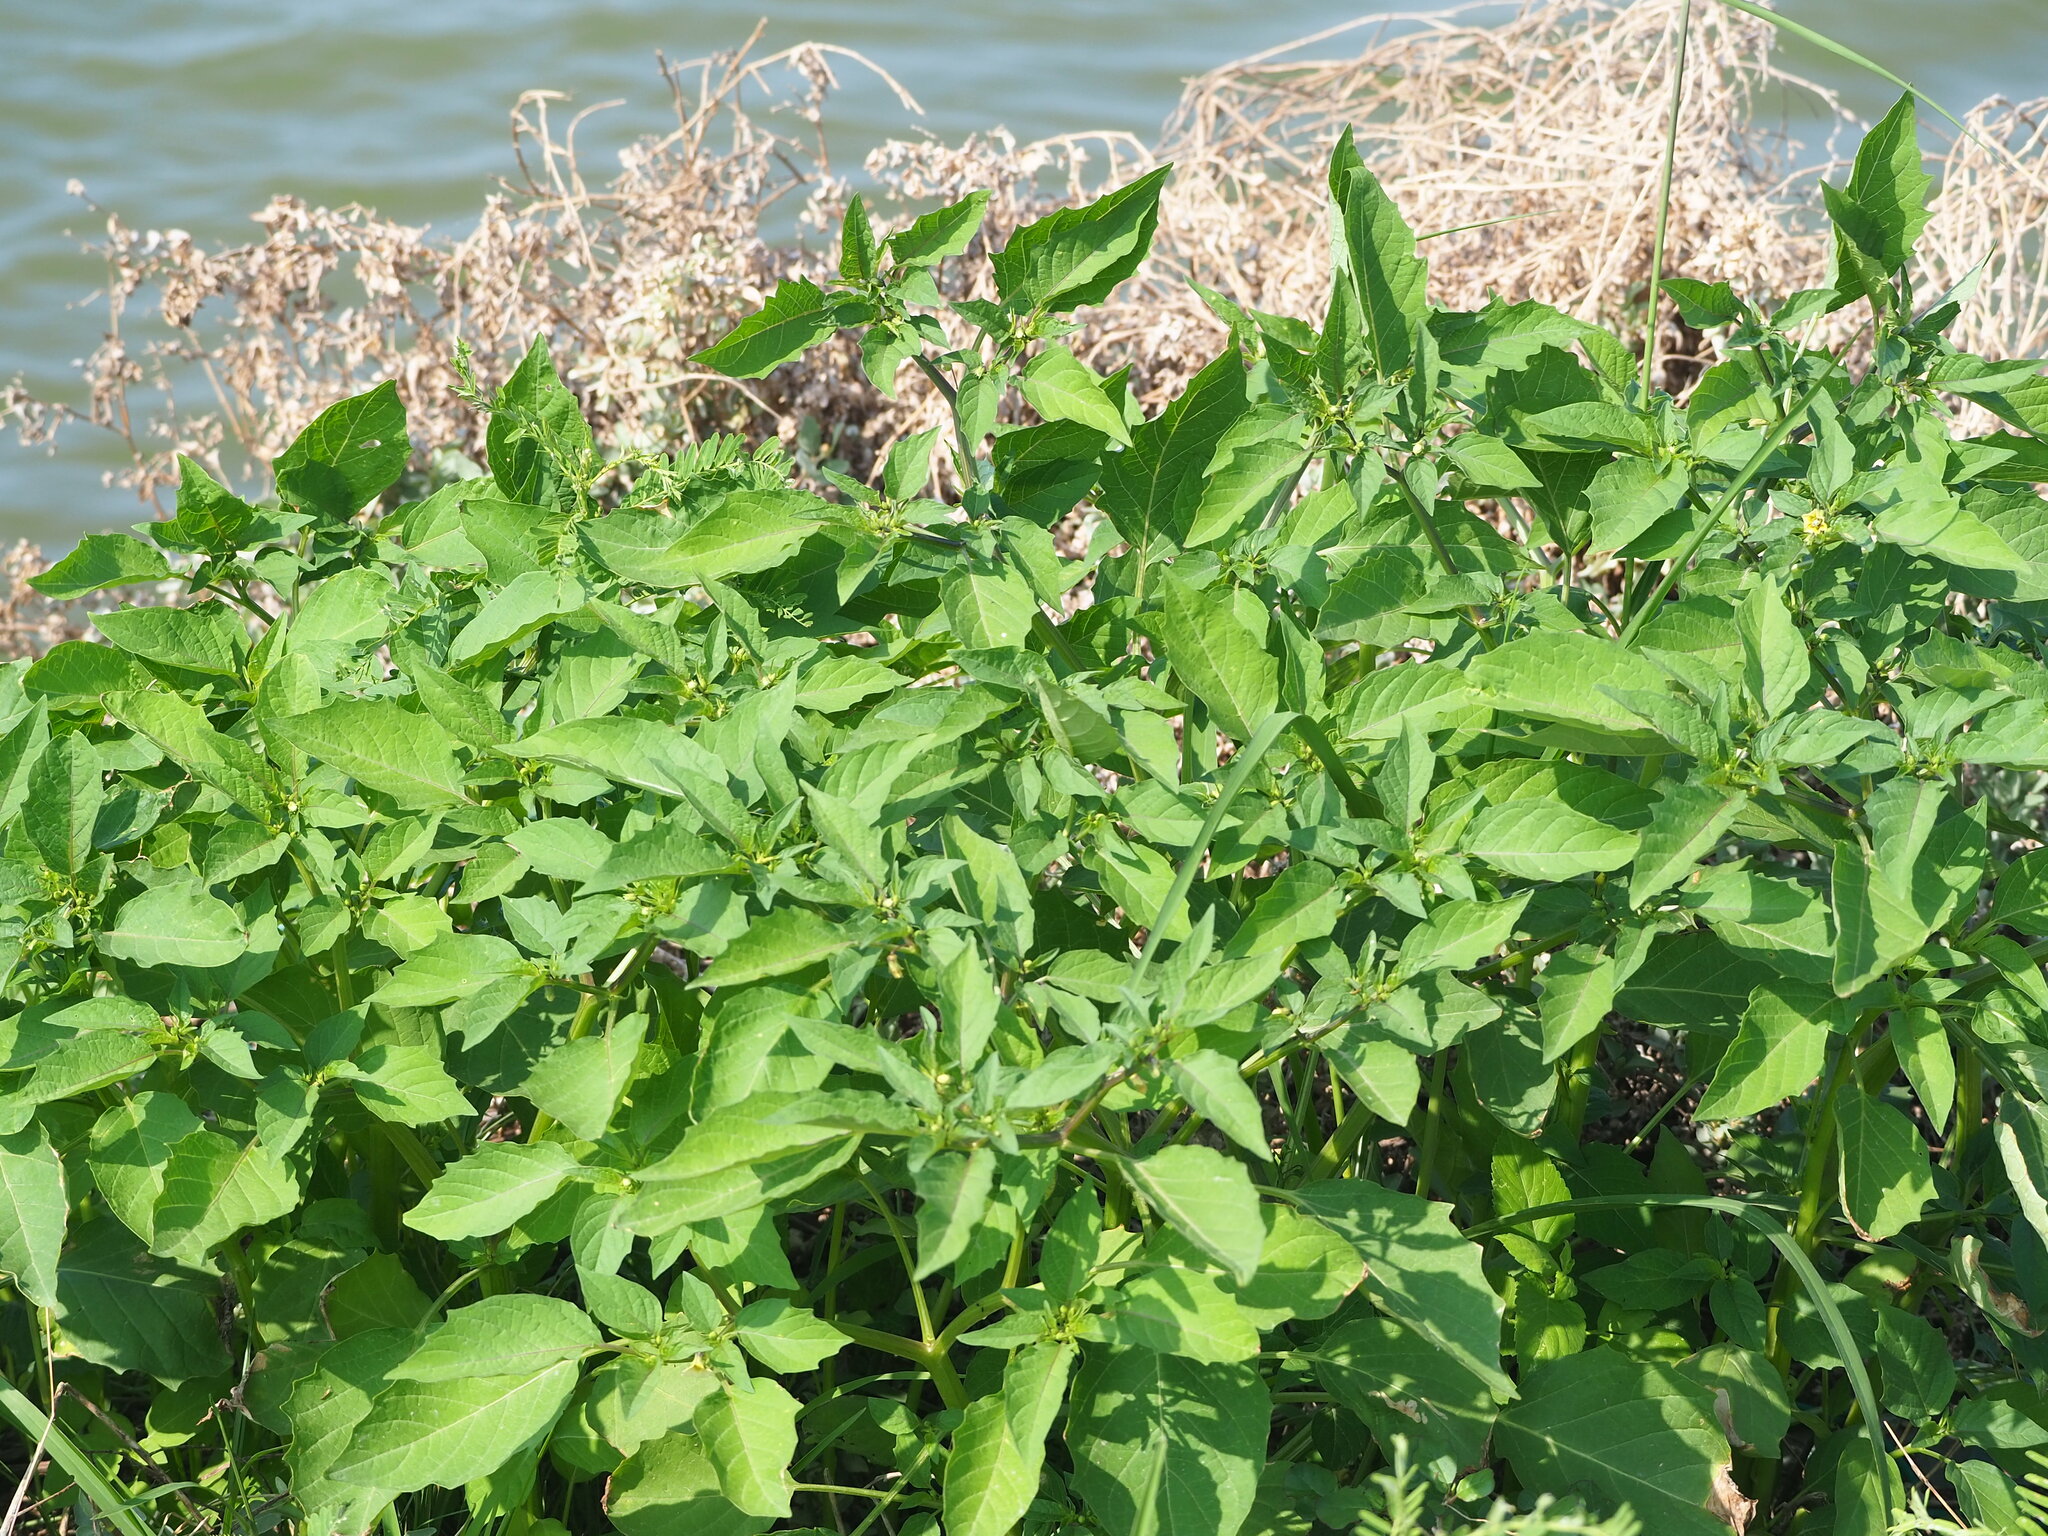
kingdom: Plantae
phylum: Tracheophyta
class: Magnoliopsida
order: Solanales
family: Solanaceae
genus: Physalis
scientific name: Physalis angulata
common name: Angular winter-cherry
